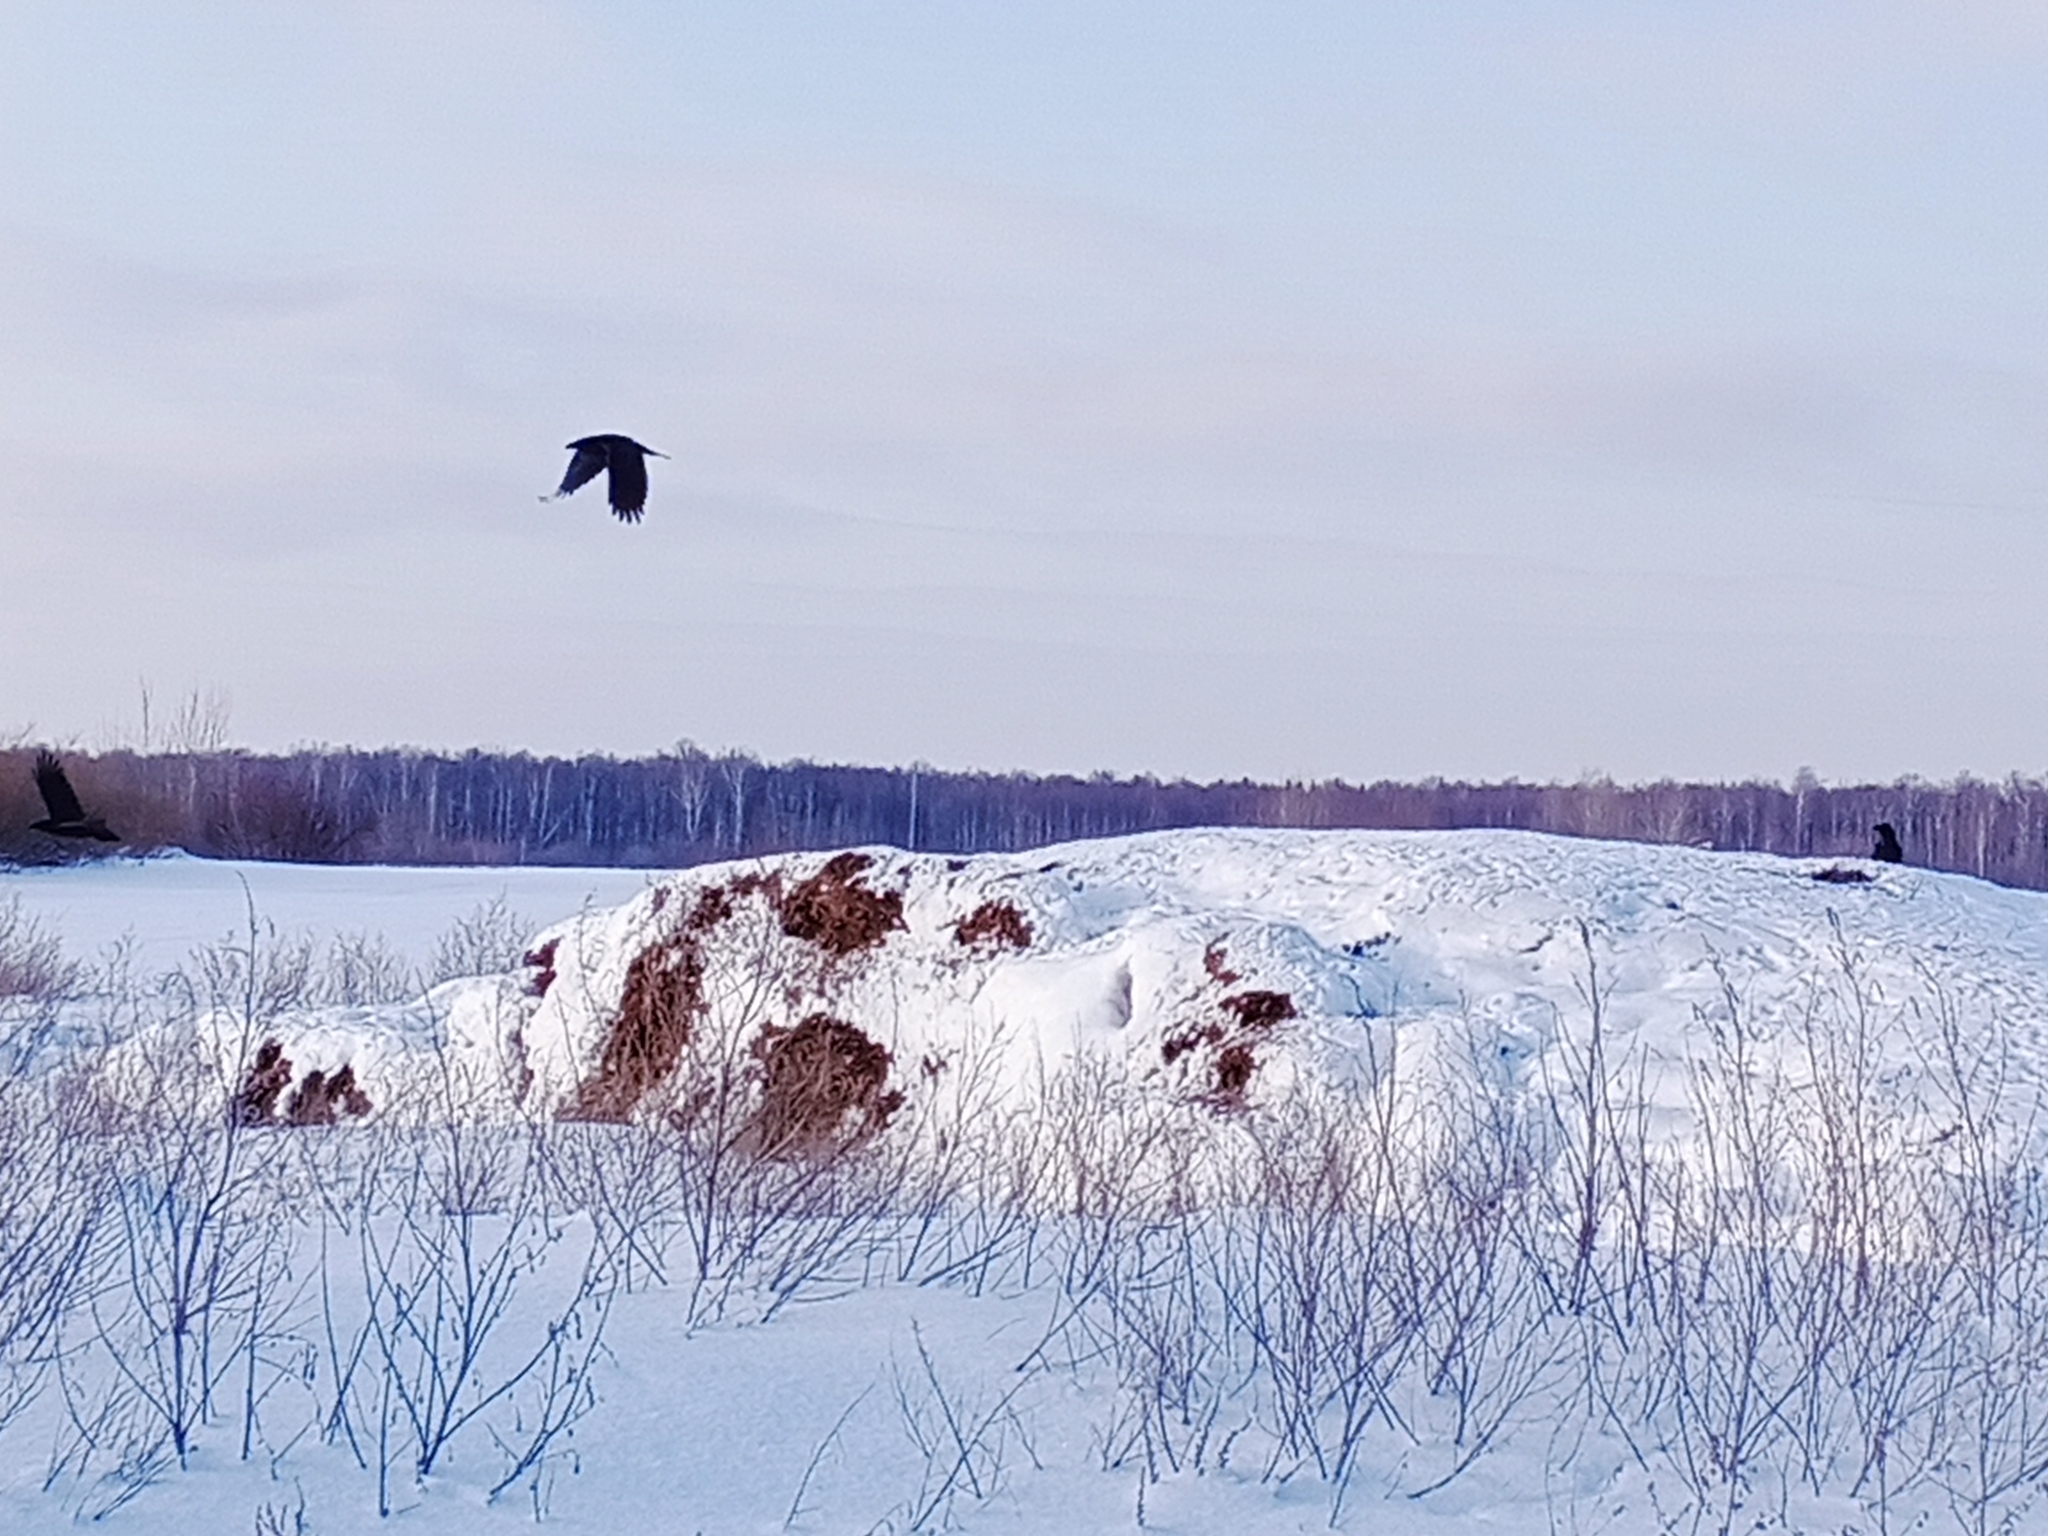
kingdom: Animalia
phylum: Chordata
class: Aves
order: Passeriformes
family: Corvidae
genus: Corvus
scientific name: Corvus corax
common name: Common raven
